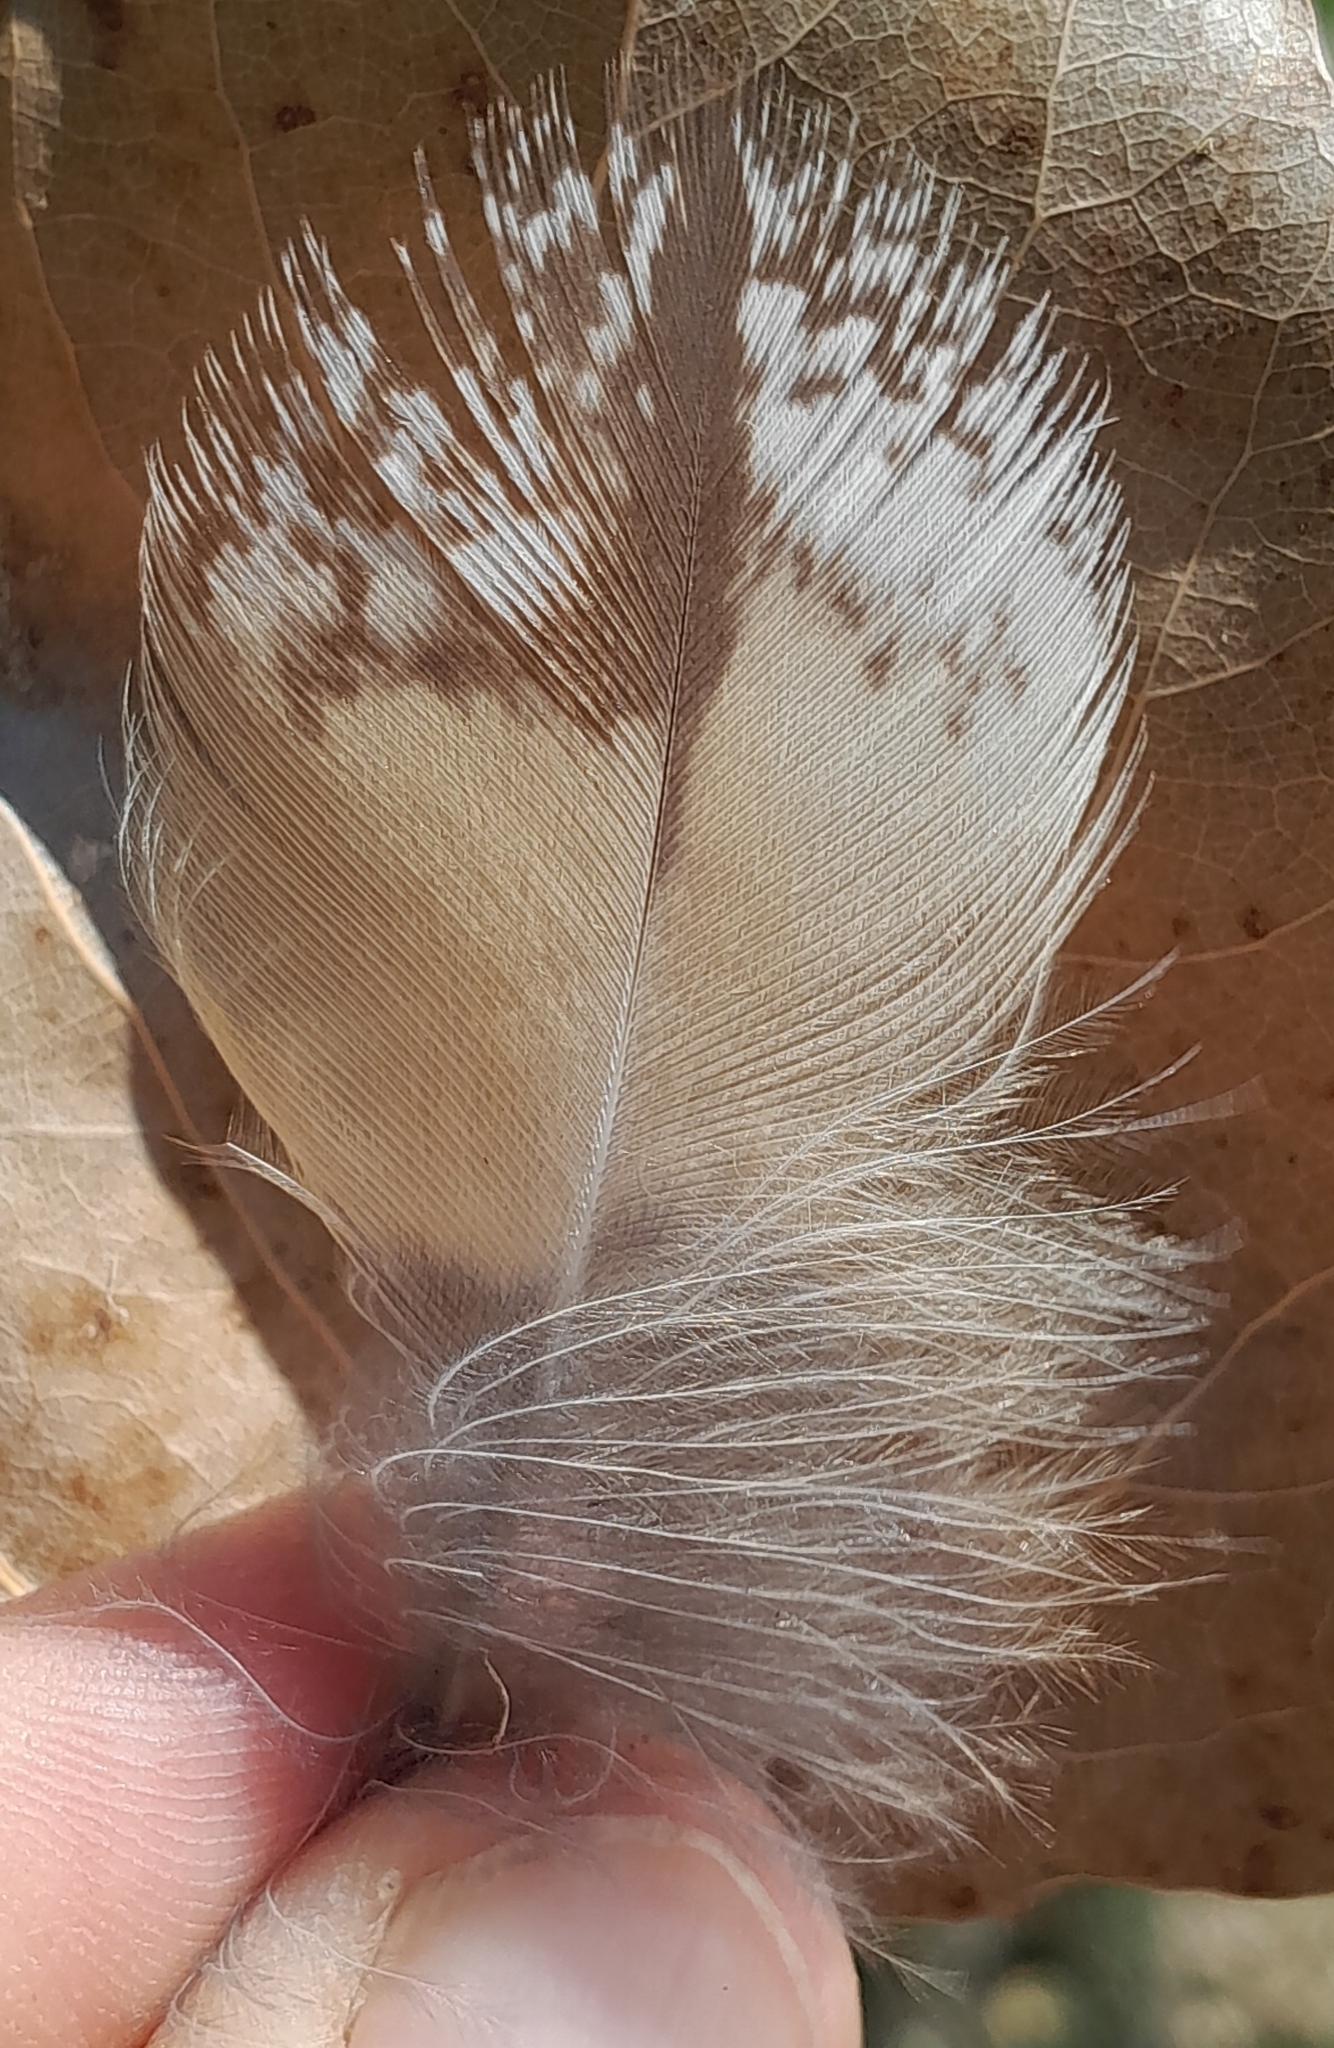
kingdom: Animalia
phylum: Chordata
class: Aves
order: Strigiformes
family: Strigidae
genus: Asio
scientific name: Asio otus
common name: Long-eared owl
